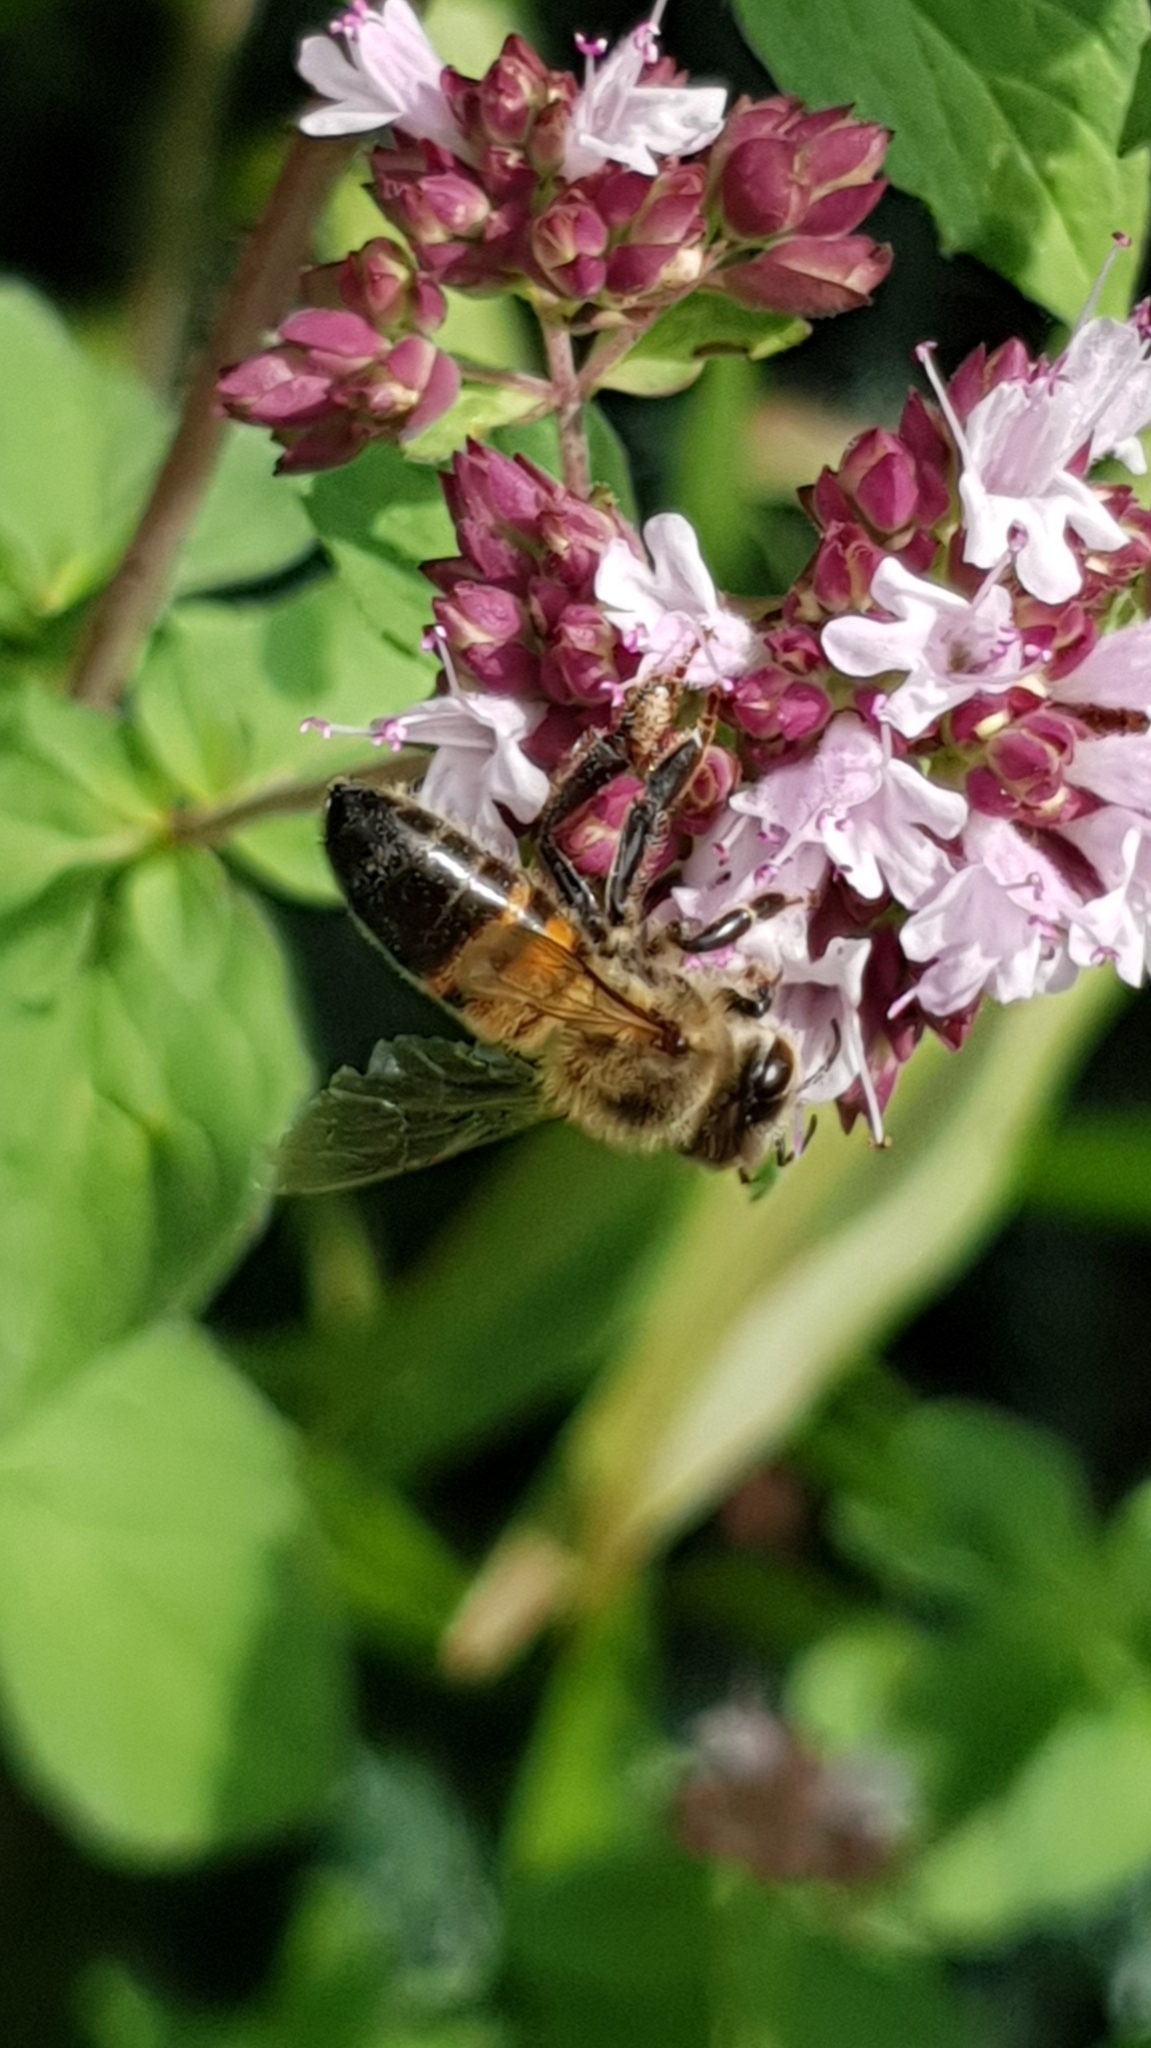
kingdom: Animalia
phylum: Arthropoda
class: Insecta
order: Hymenoptera
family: Apidae
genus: Apis
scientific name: Apis mellifera
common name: Honey bee
